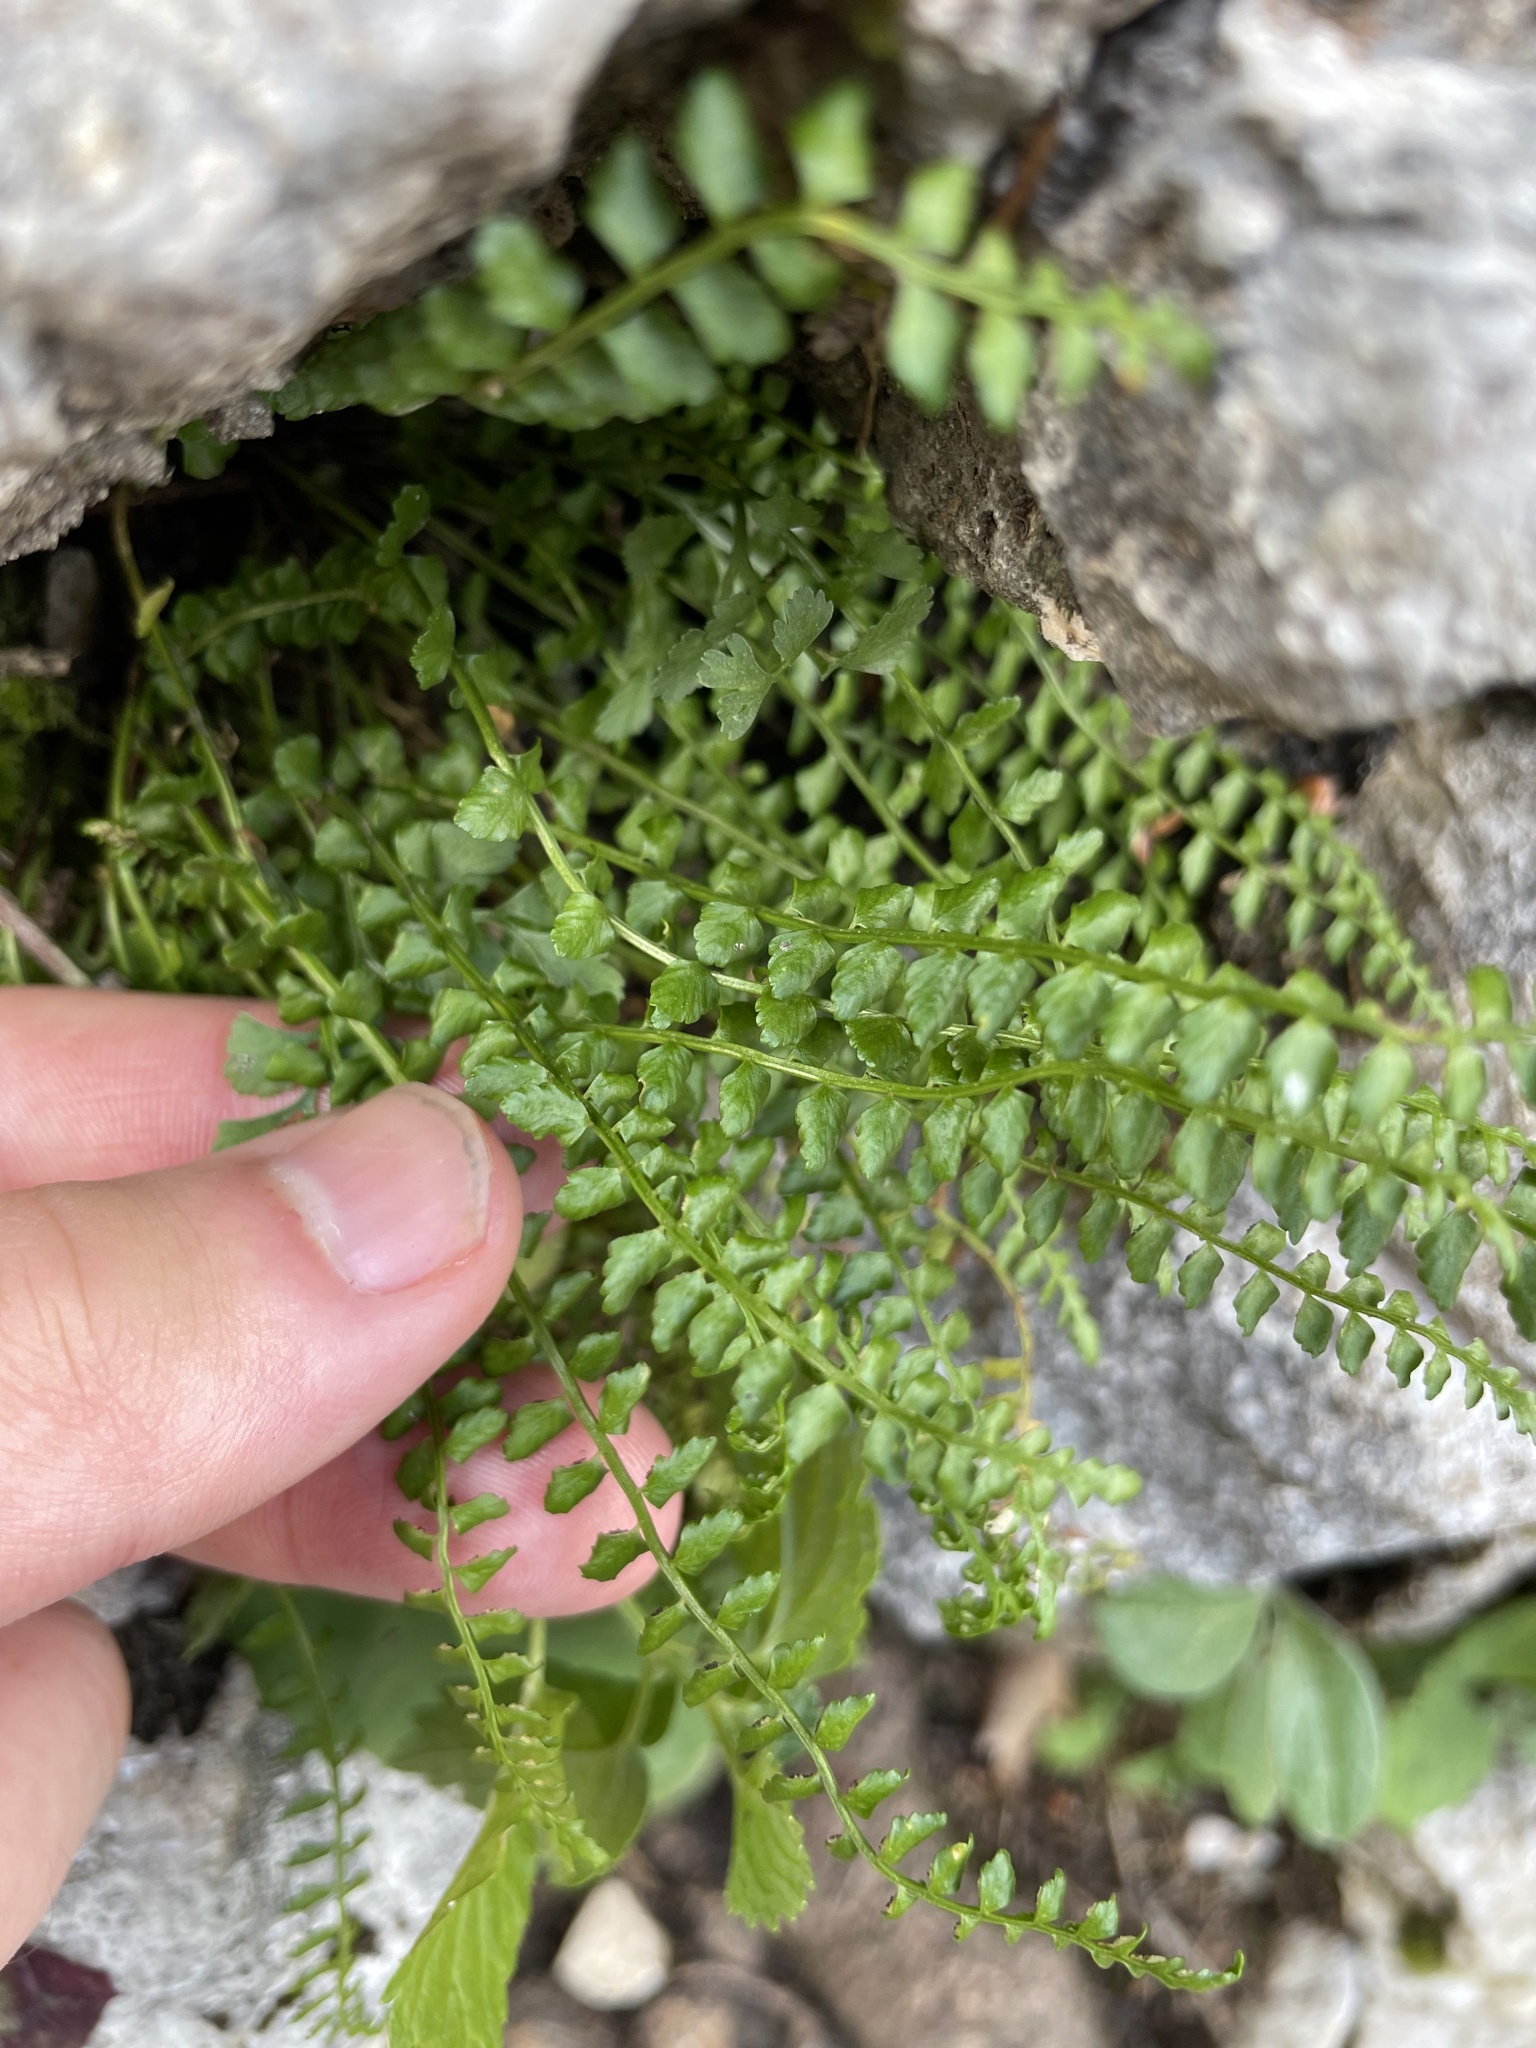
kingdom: Plantae
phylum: Tracheophyta
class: Polypodiopsida
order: Polypodiales
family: Aspleniaceae
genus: Asplenium
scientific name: Asplenium viride
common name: Green spleenwort
